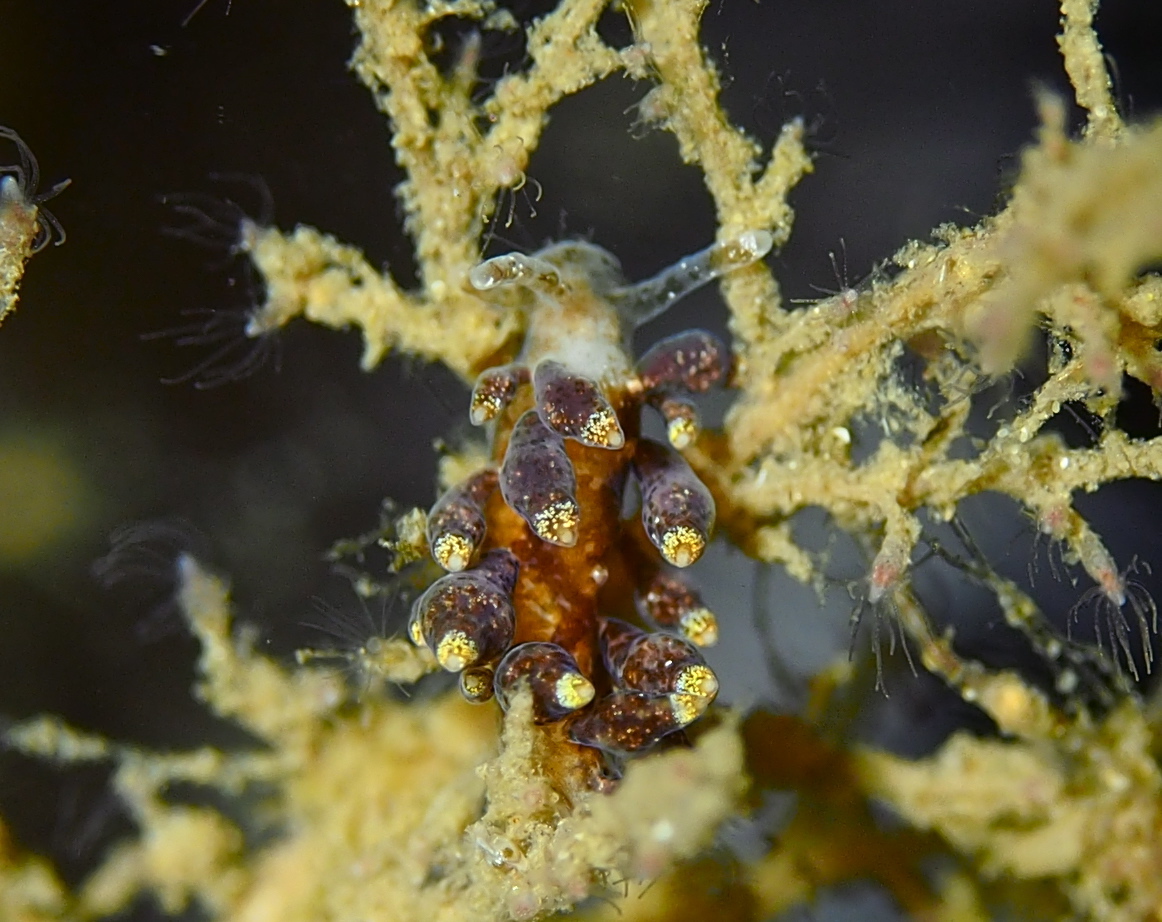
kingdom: Animalia
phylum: Mollusca
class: Gastropoda
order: Nudibranchia
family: Eubranchidae
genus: Eubranchus
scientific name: Eubranchus exiguus
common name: Balloon aeolis
